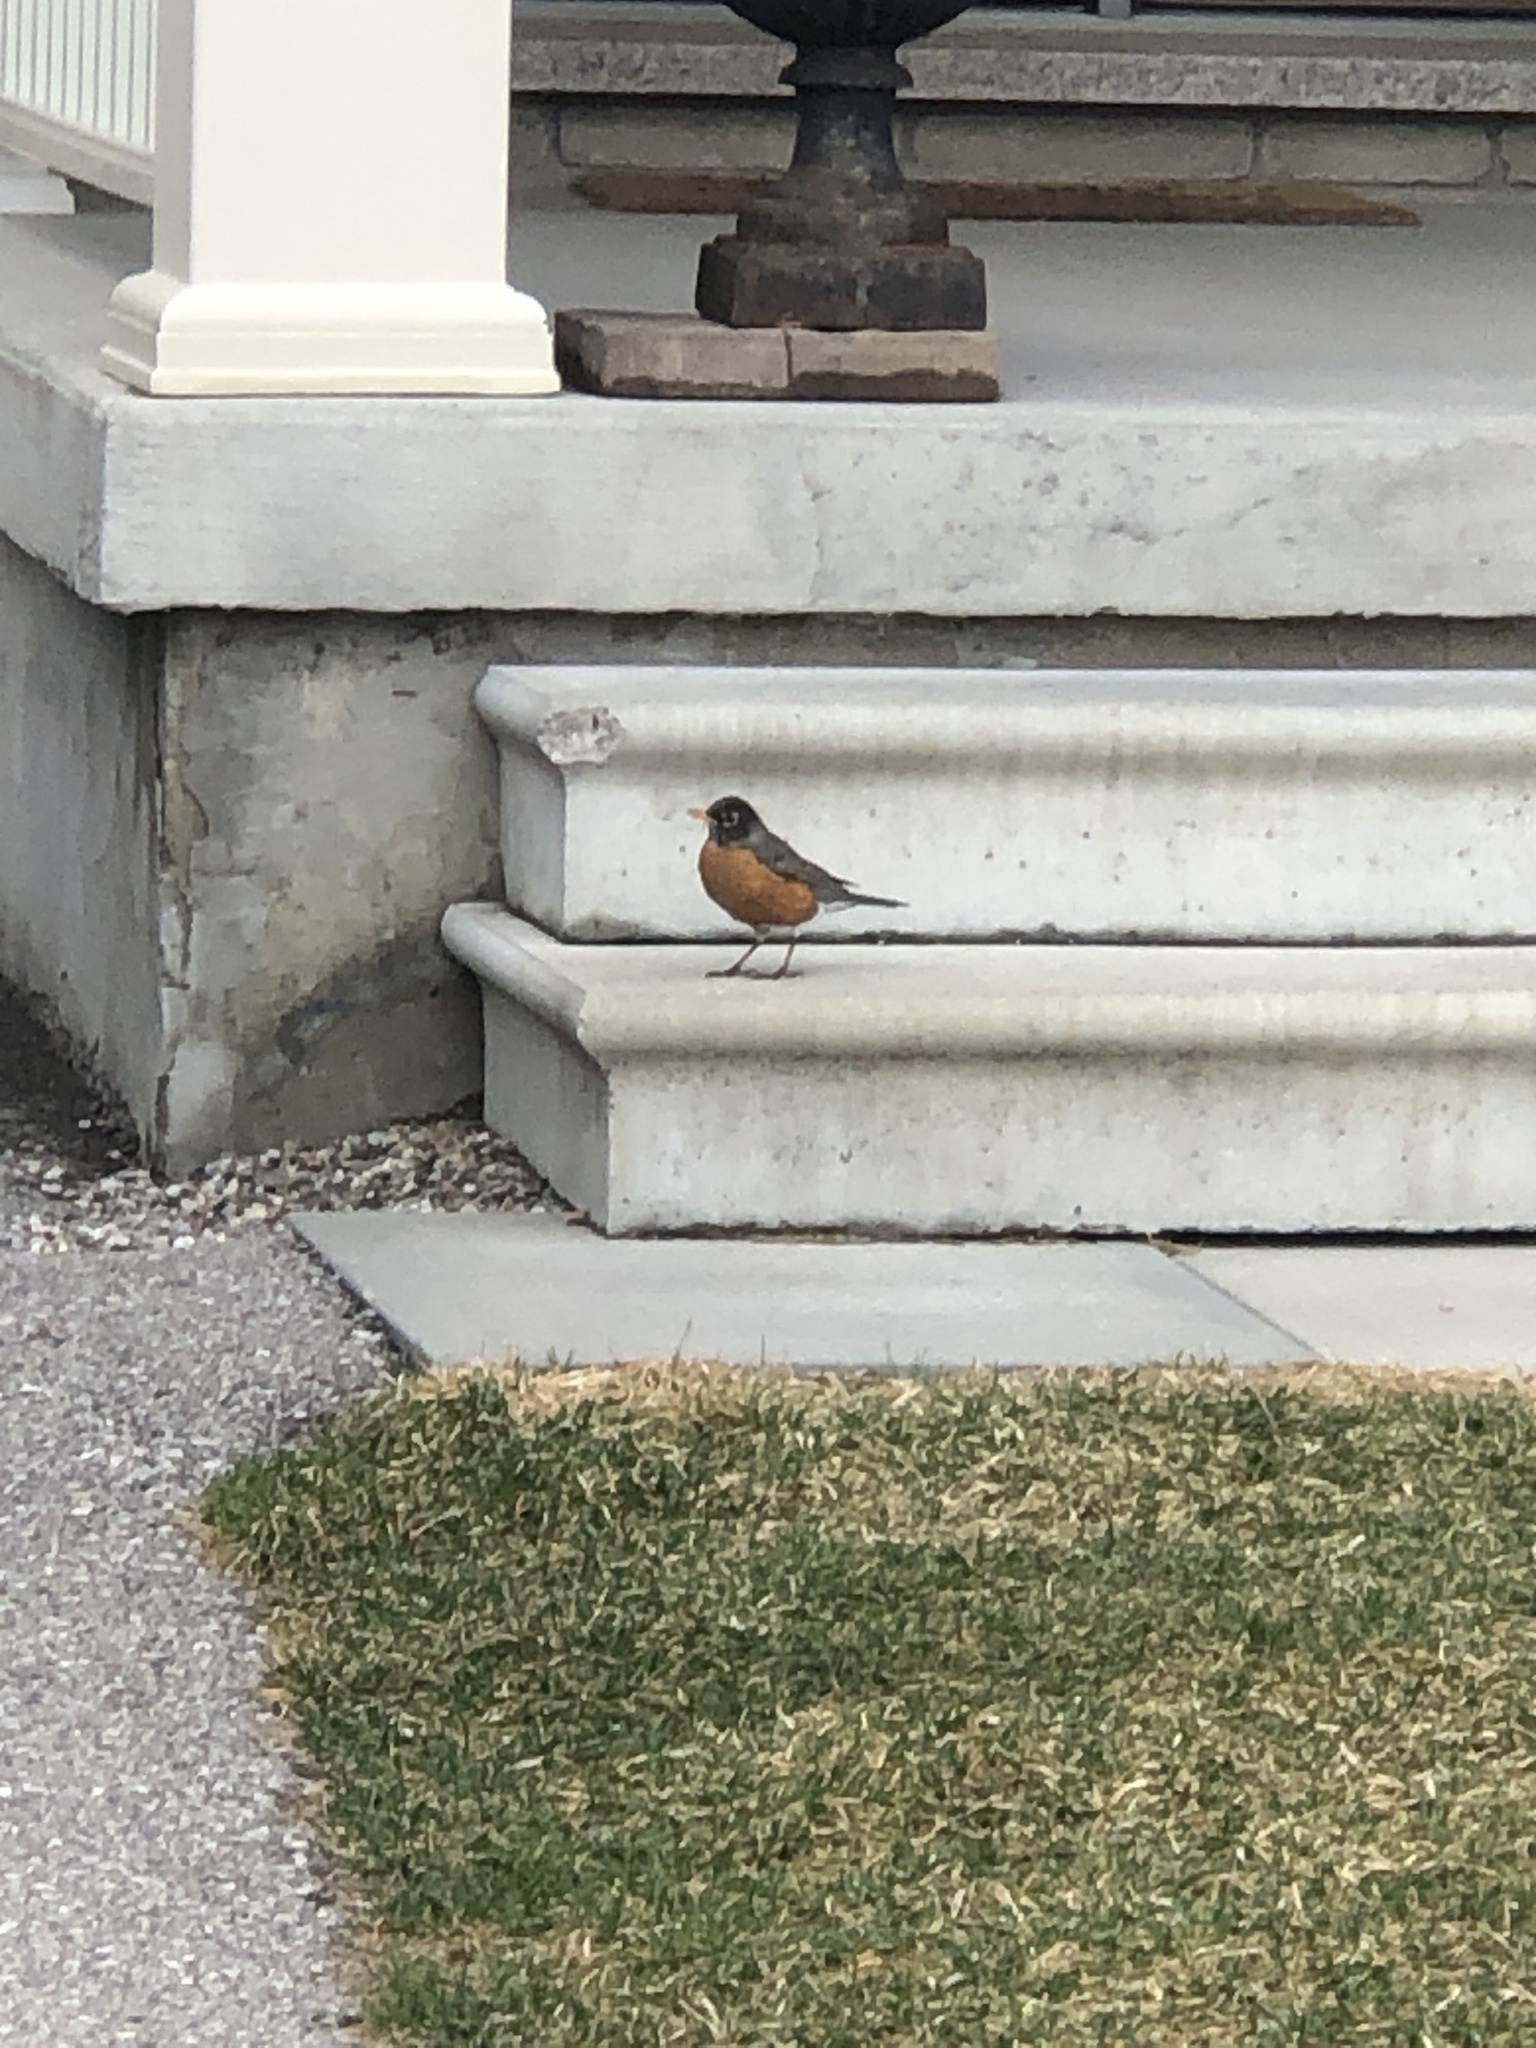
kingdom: Animalia
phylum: Chordata
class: Aves
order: Passeriformes
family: Turdidae
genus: Turdus
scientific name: Turdus migratorius
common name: American robin
